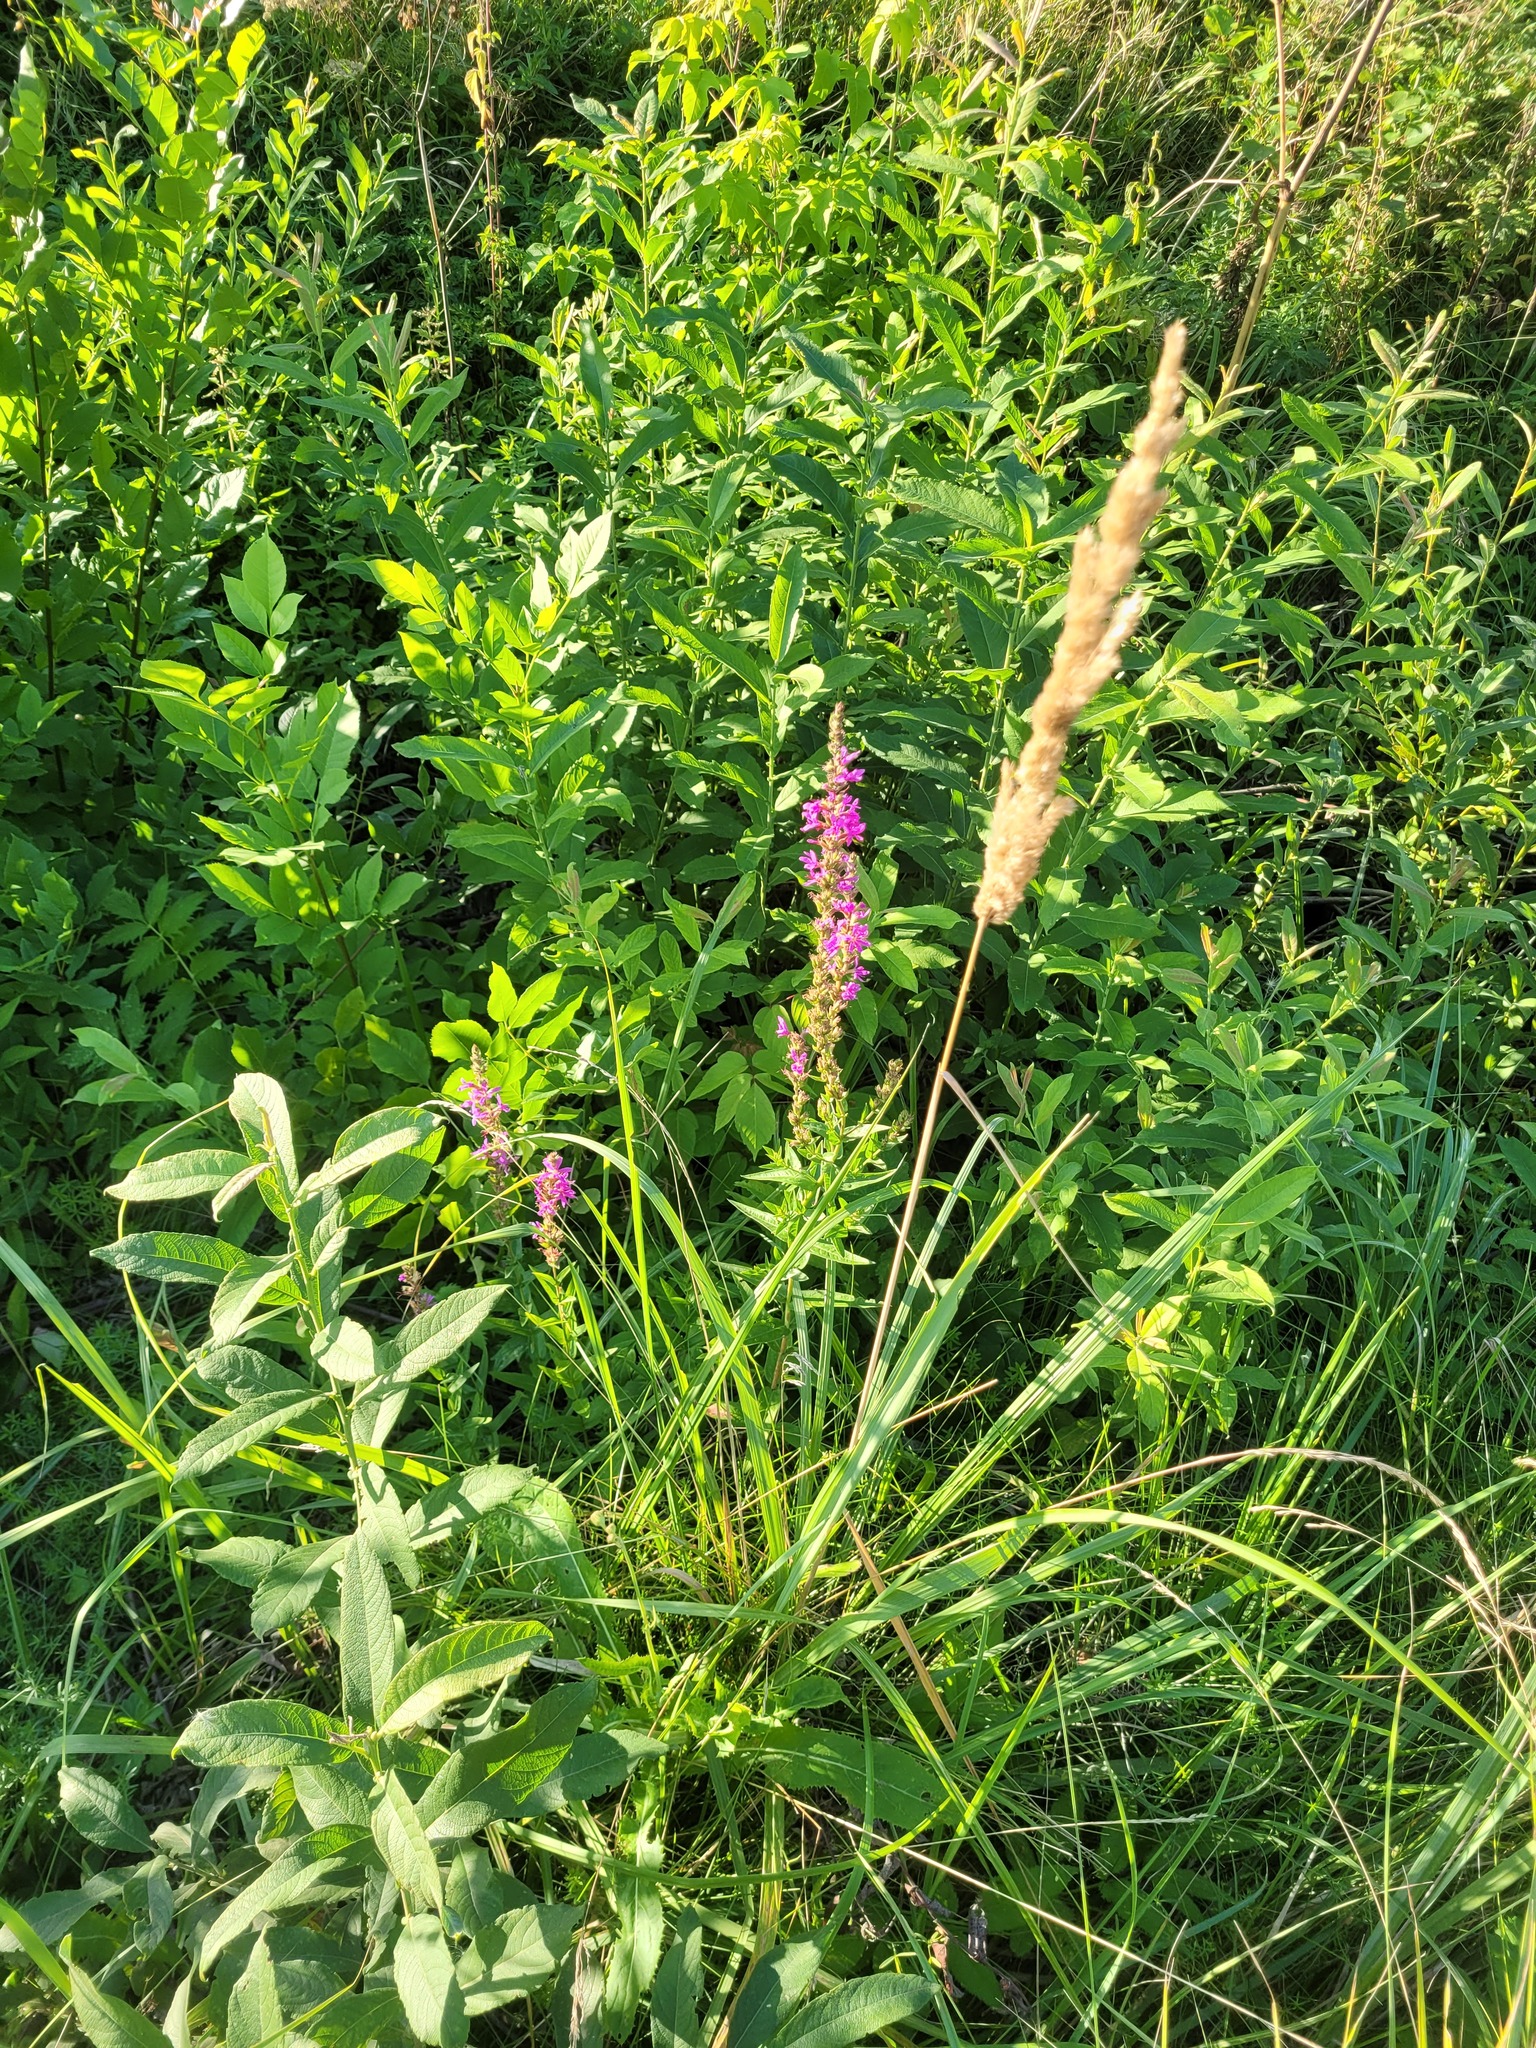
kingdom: Plantae
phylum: Tracheophyta
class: Magnoliopsida
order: Myrtales
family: Lythraceae
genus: Lythrum
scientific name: Lythrum salicaria
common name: Purple loosestrife
